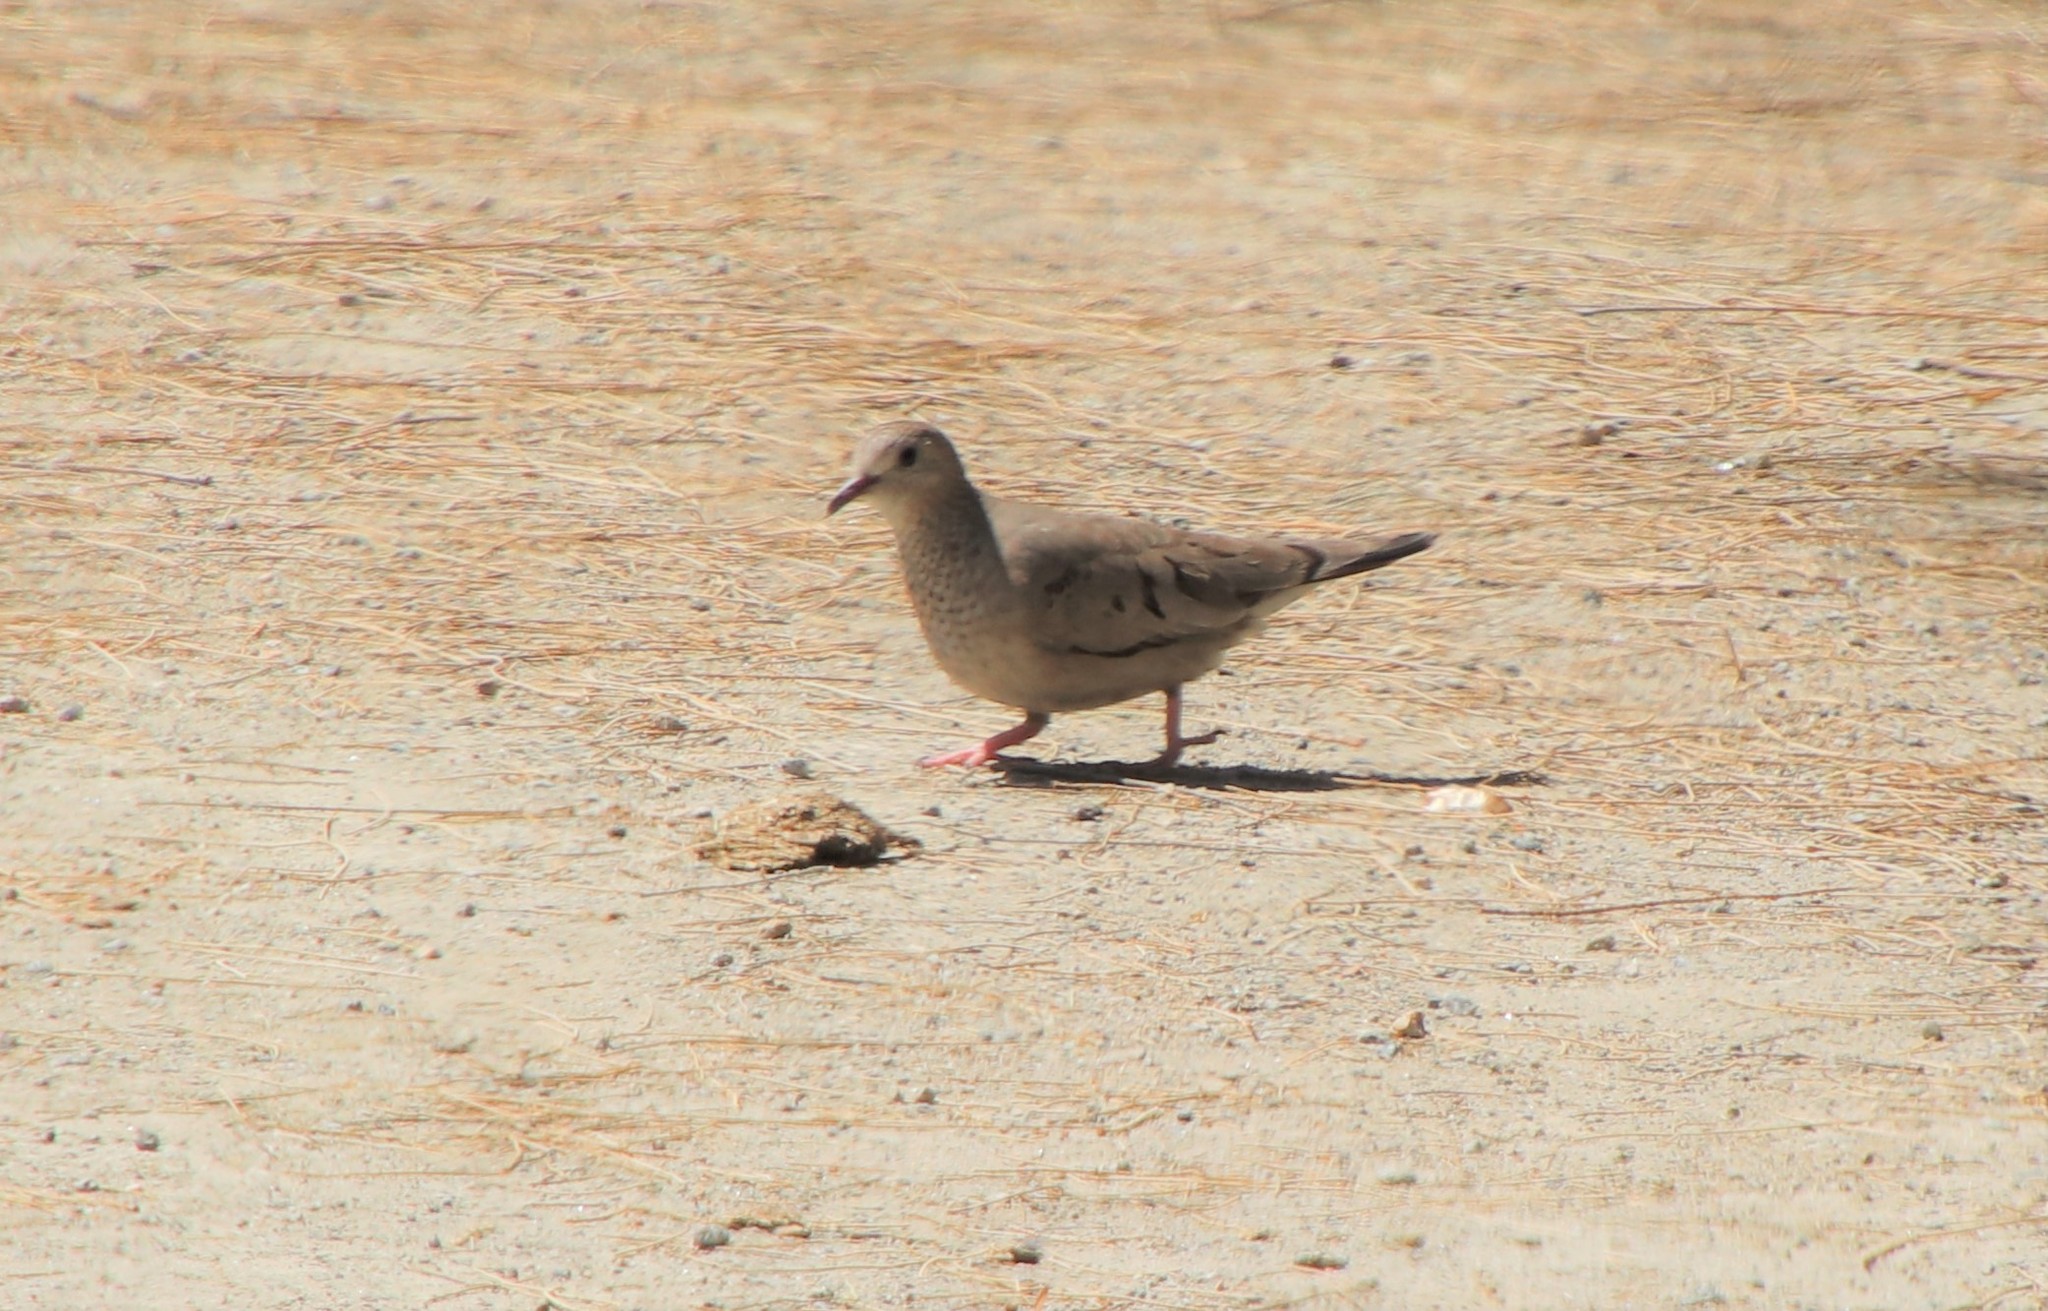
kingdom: Animalia
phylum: Chordata
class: Aves
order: Columbiformes
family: Columbidae
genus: Columbina
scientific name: Columbina passerina
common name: Common ground-dove
